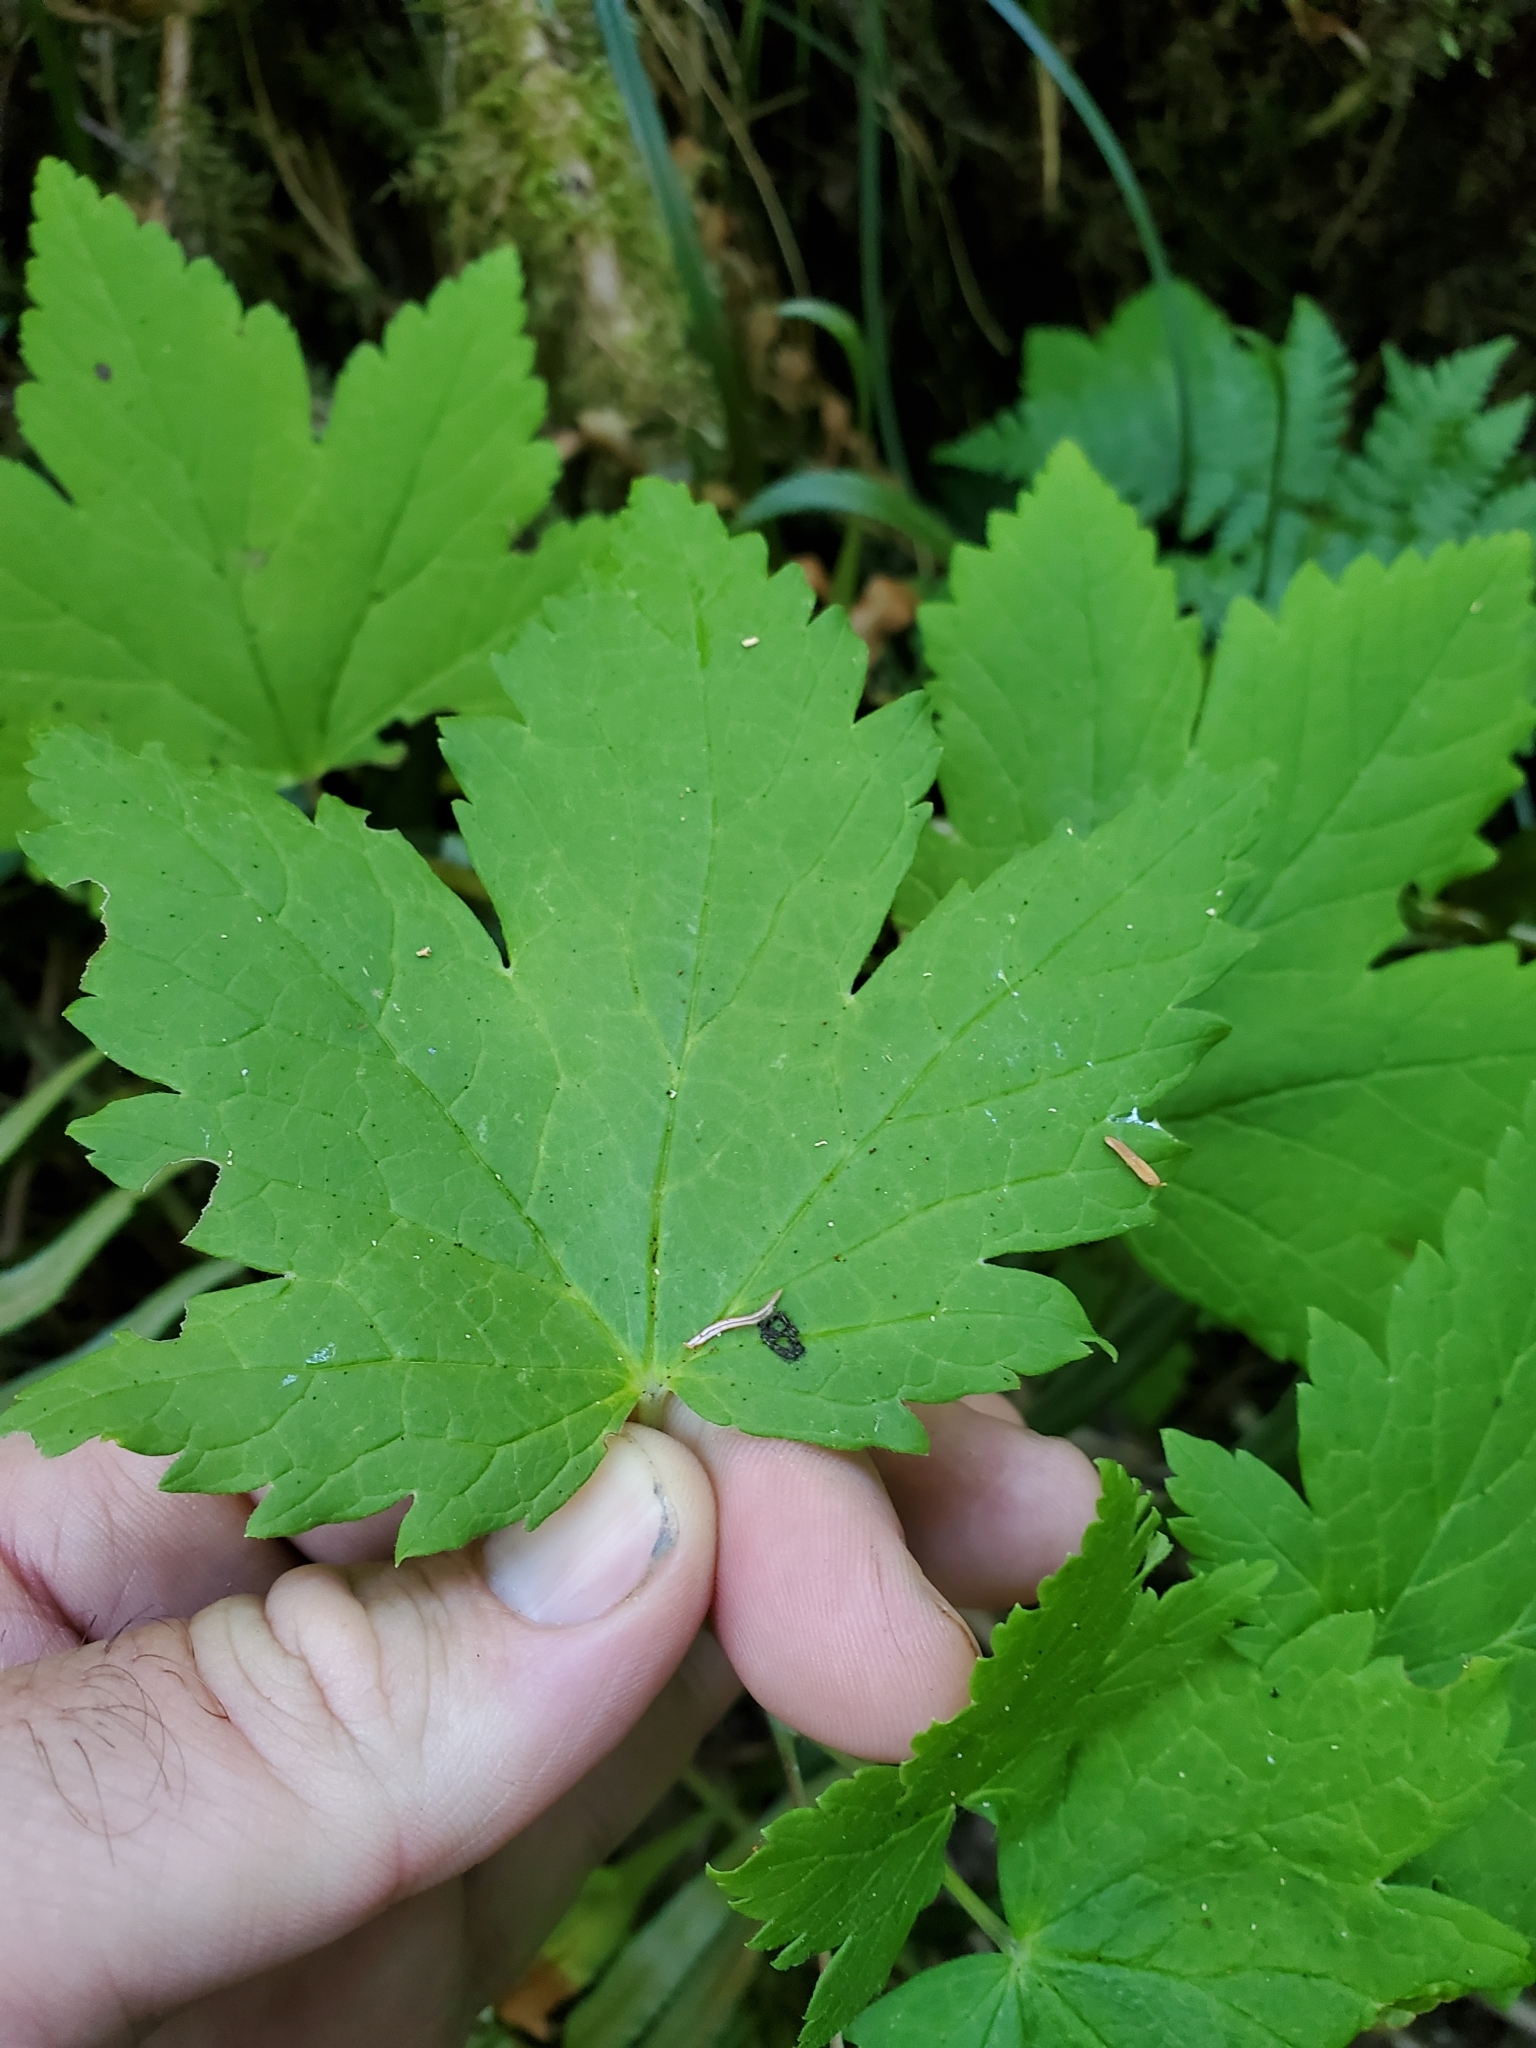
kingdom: Plantae
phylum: Tracheophyta
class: Magnoliopsida
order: Saxifragales
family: Grossulariaceae
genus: Ribes
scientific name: Ribes bracteosum
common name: California black currant
